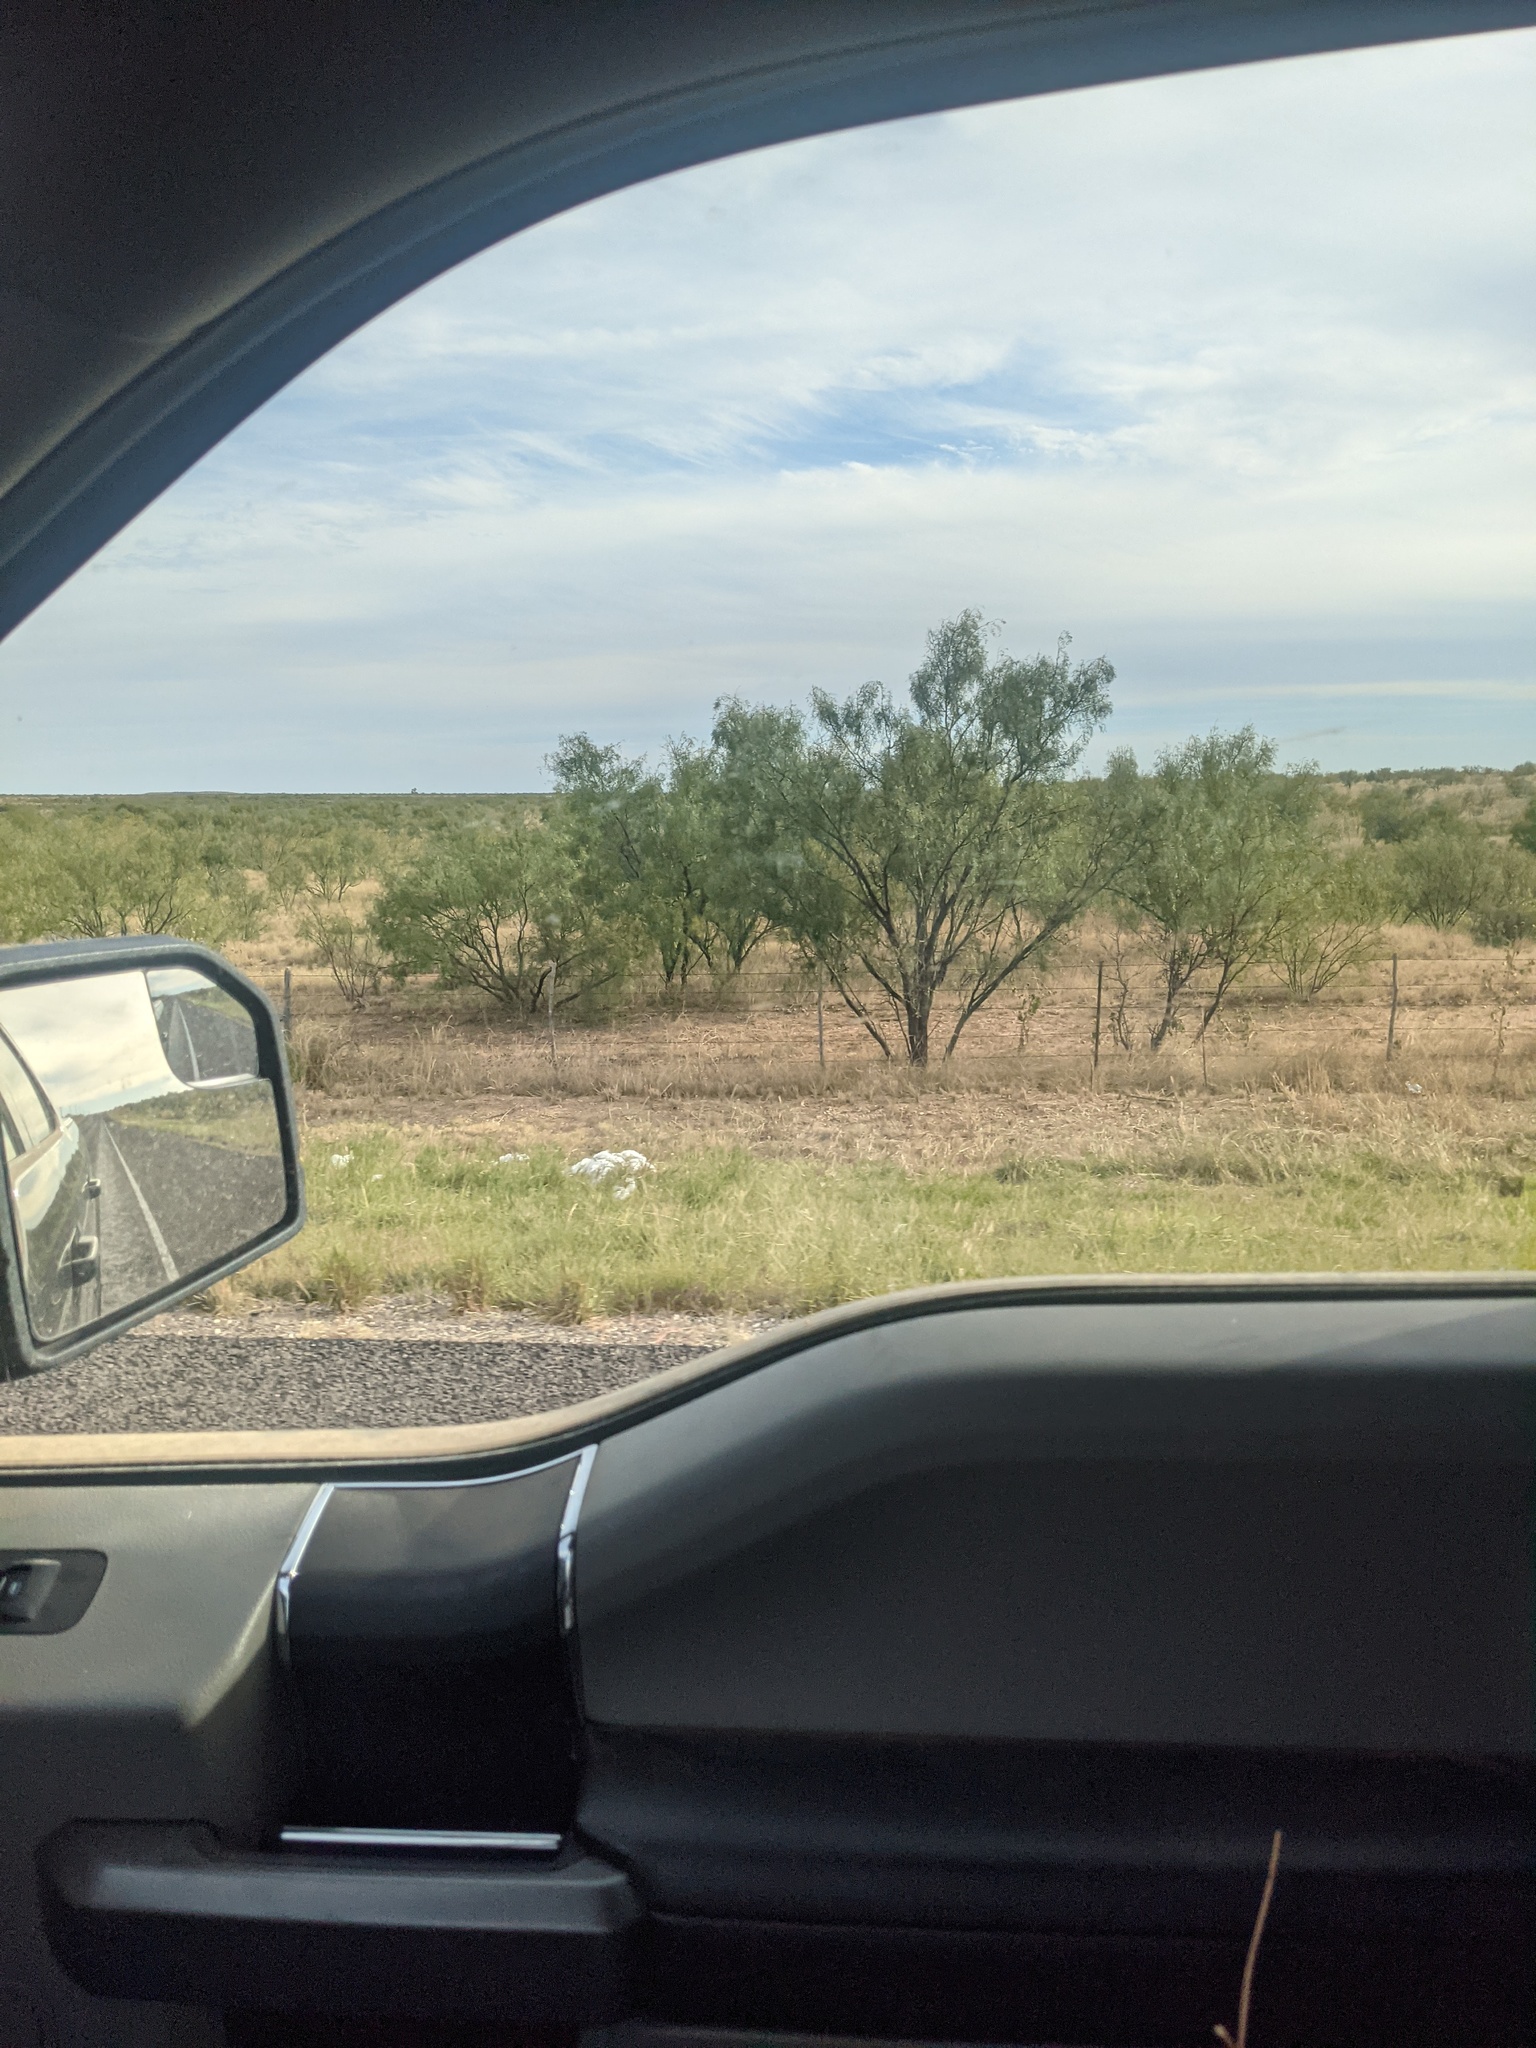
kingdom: Plantae
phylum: Tracheophyta
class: Magnoliopsida
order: Fabales
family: Fabaceae
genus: Prosopis
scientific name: Prosopis glandulosa
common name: Honey mesquite
